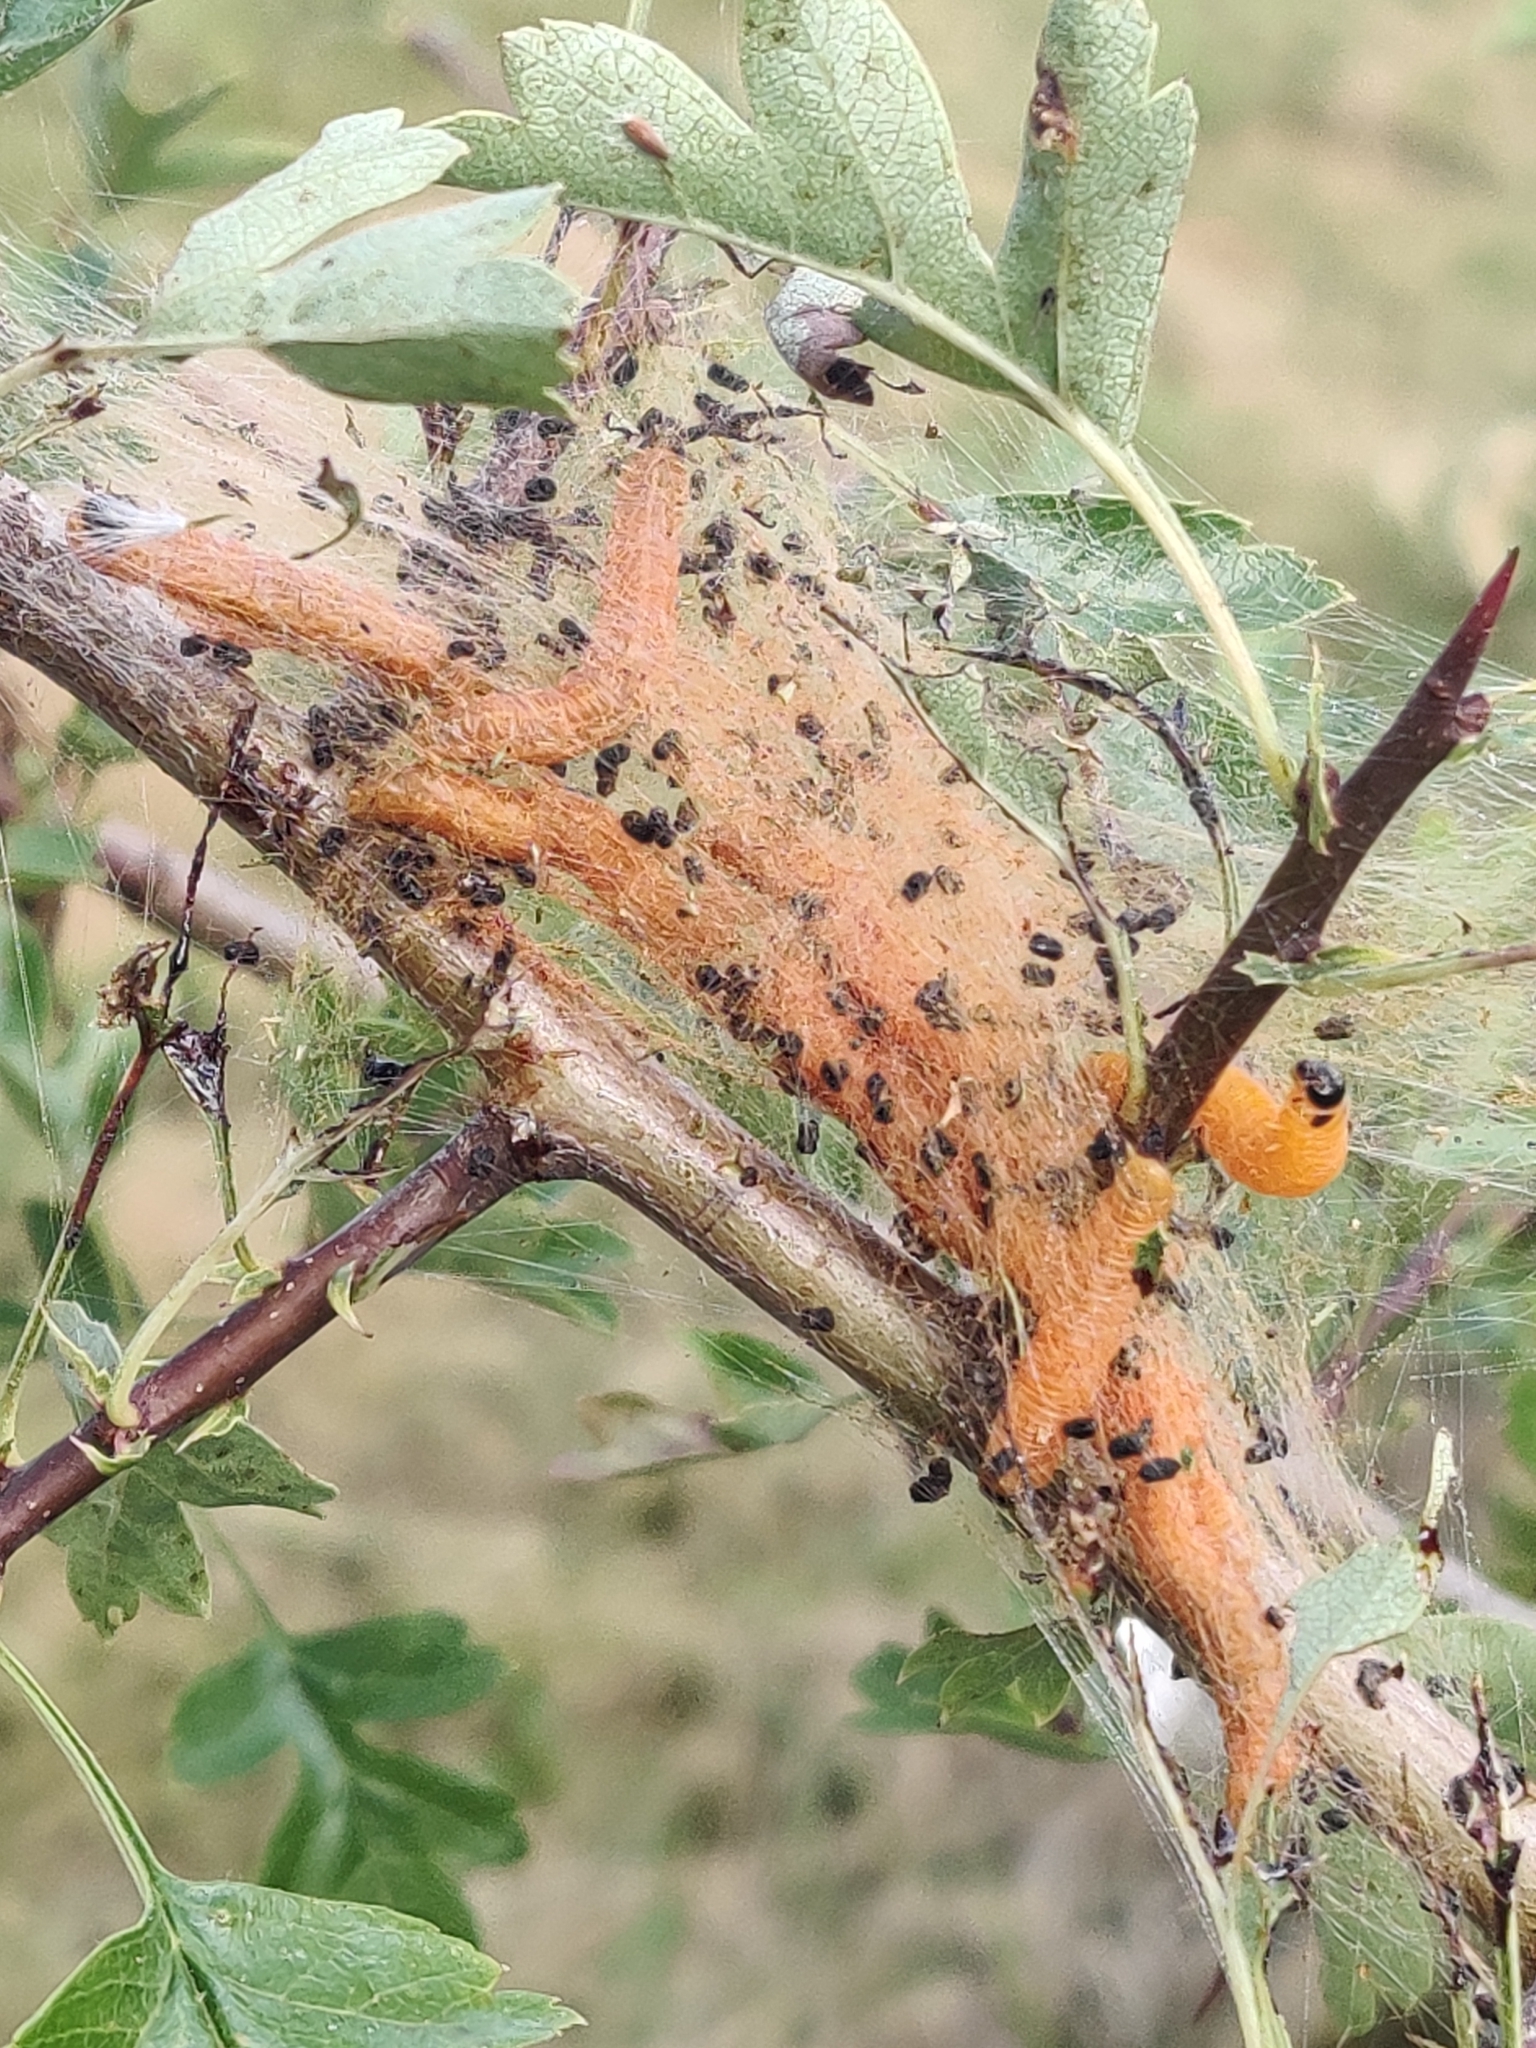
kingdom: Animalia
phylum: Arthropoda
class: Insecta
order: Hymenoptera
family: Pamphiliidae
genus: Neurotoma
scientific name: Neurotoma saltuum
